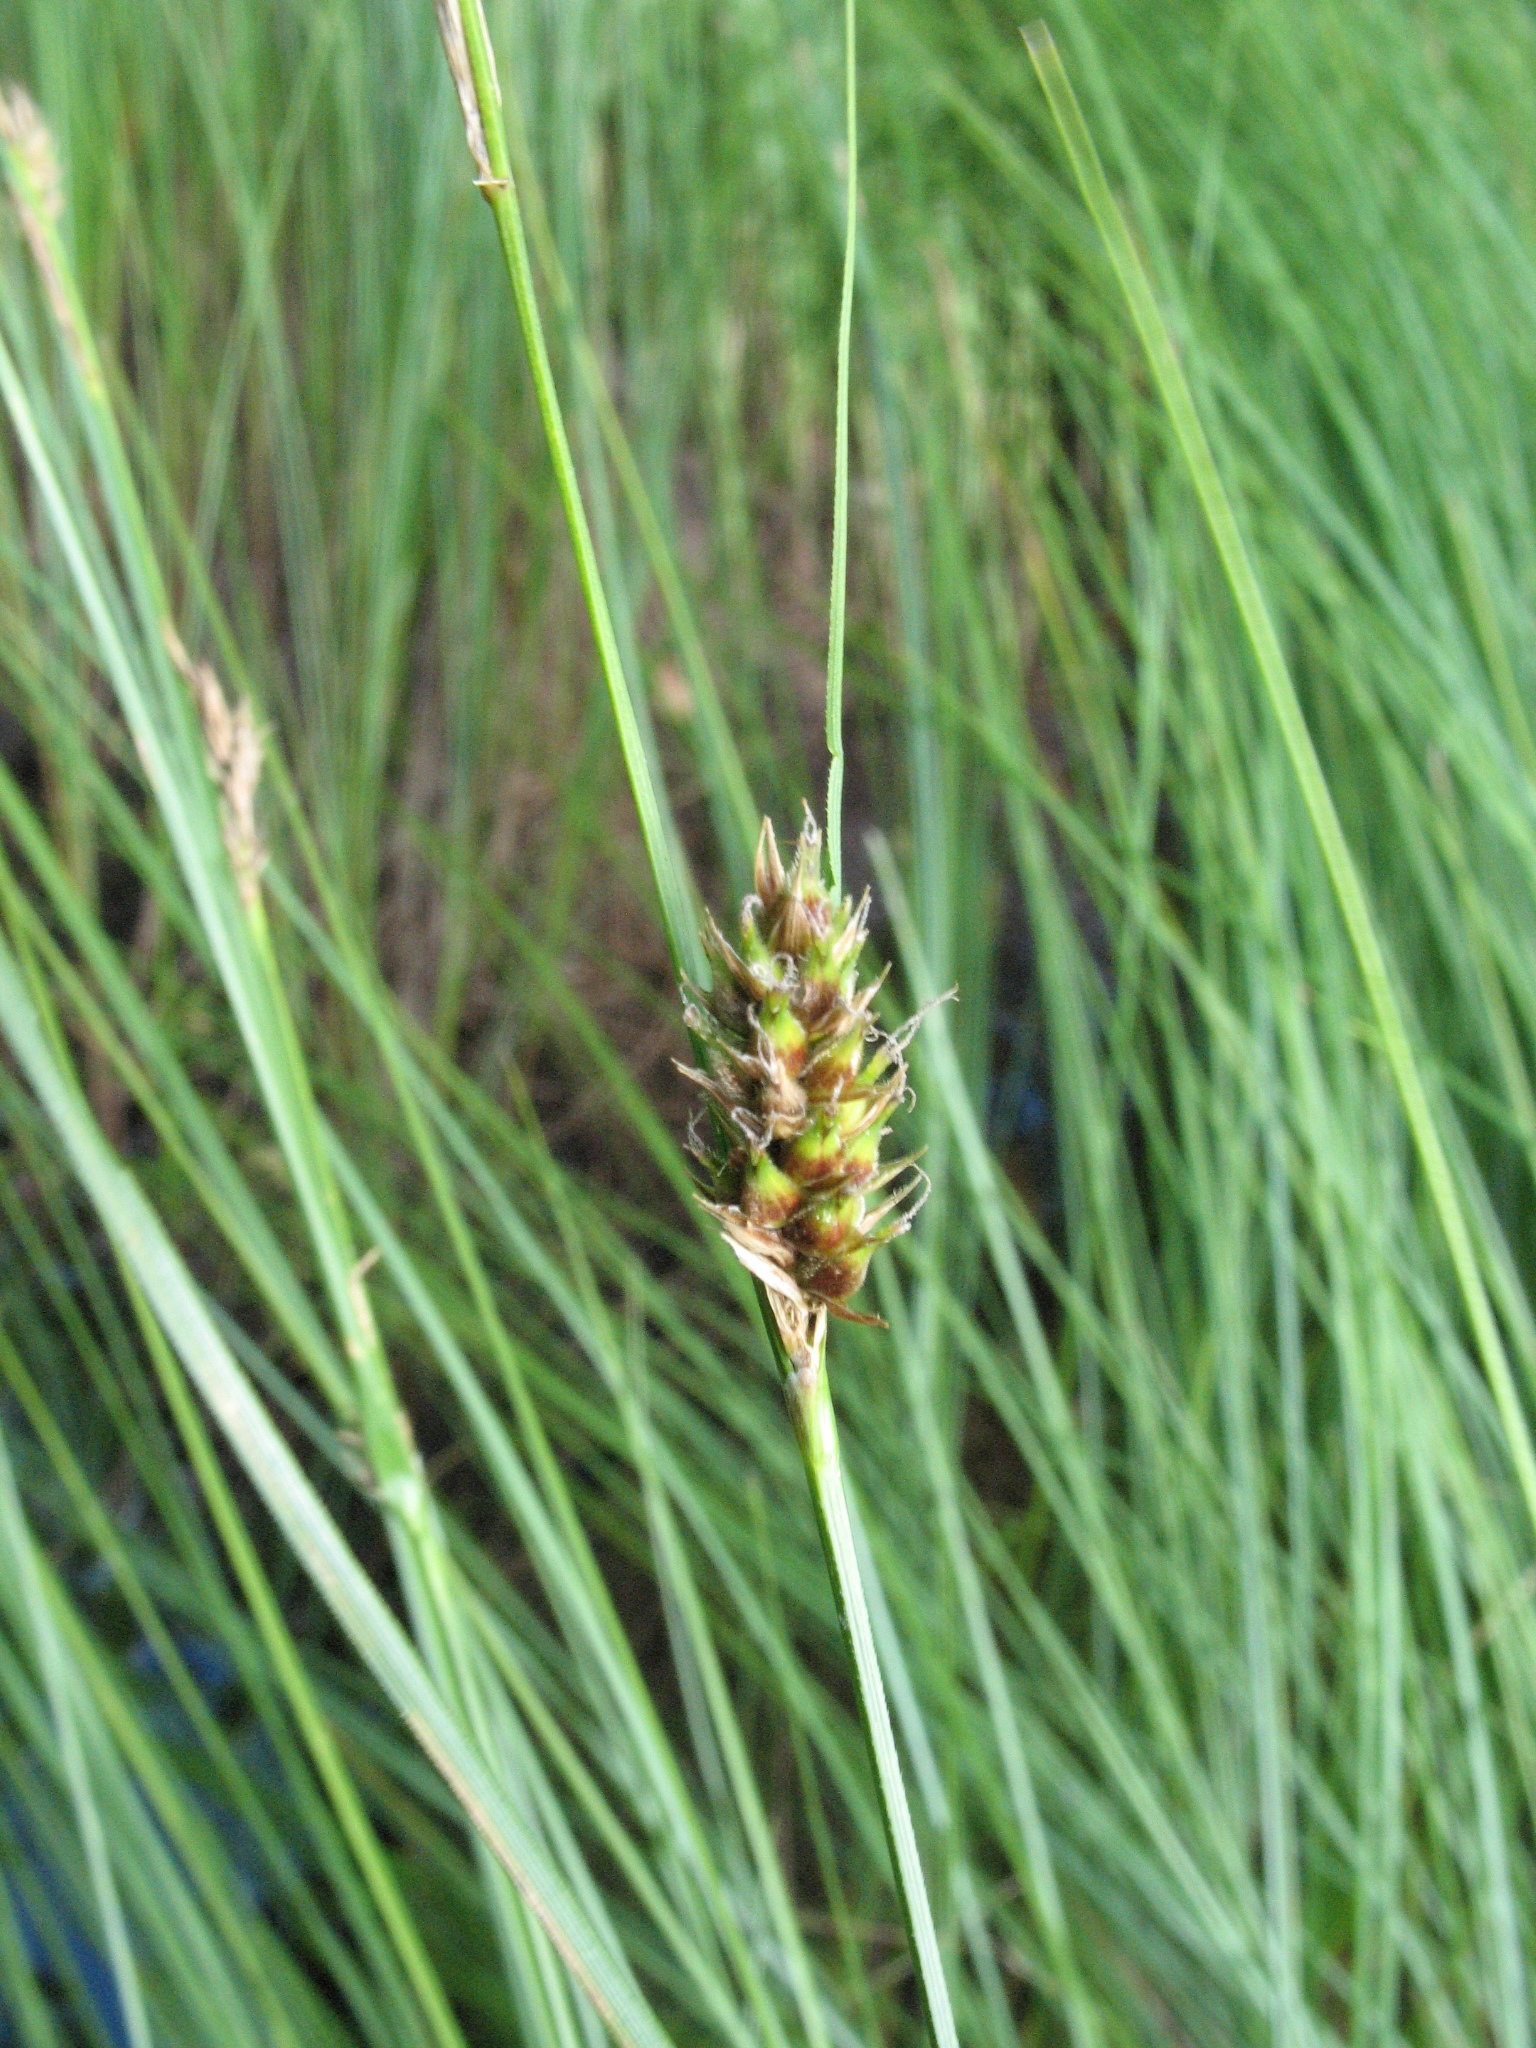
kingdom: Plantae
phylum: Tracheophyta
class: Liliopsida
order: Poales
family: Cyperaceae
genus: Carex
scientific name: Carex lasiocarpa
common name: Slender sedge
